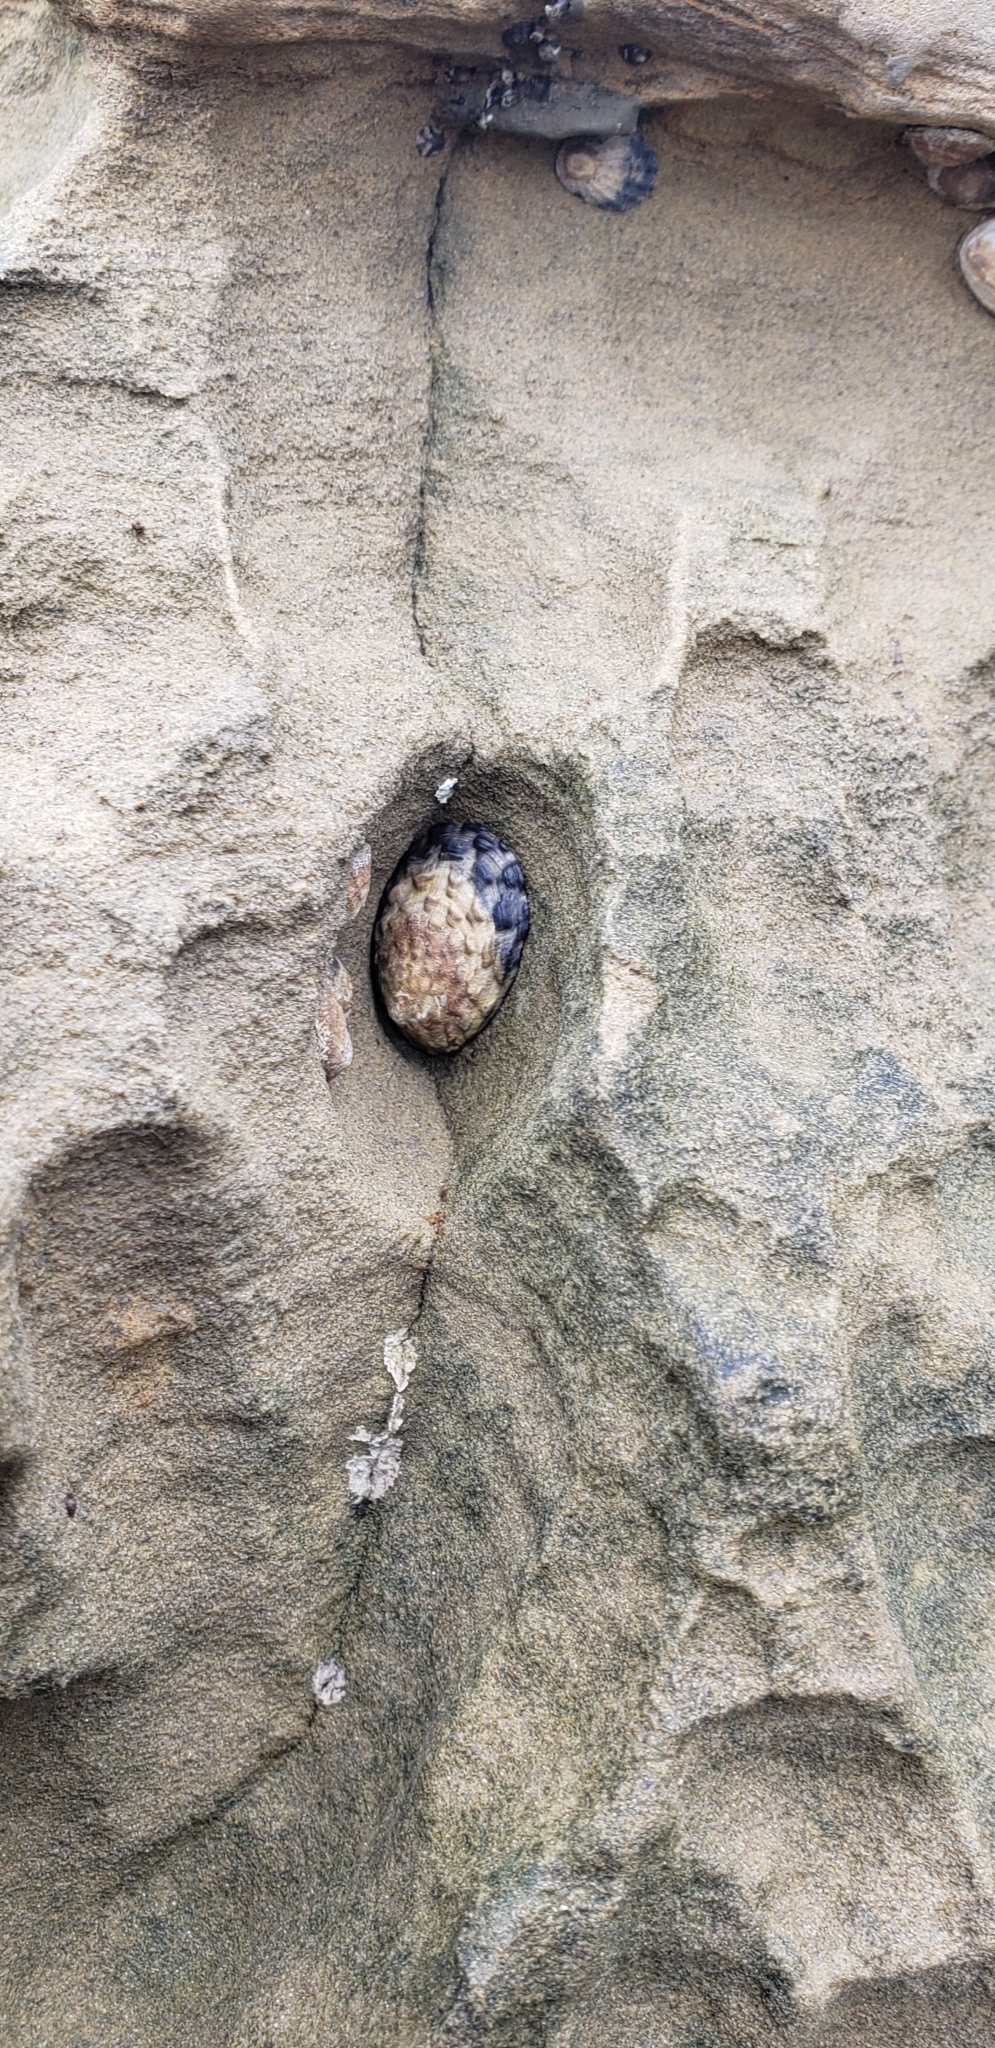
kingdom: Animalia
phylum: Mollusca
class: Gastropoda
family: Lottiidae
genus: Lottia
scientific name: Lottia gigantea
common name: Owl limpet
